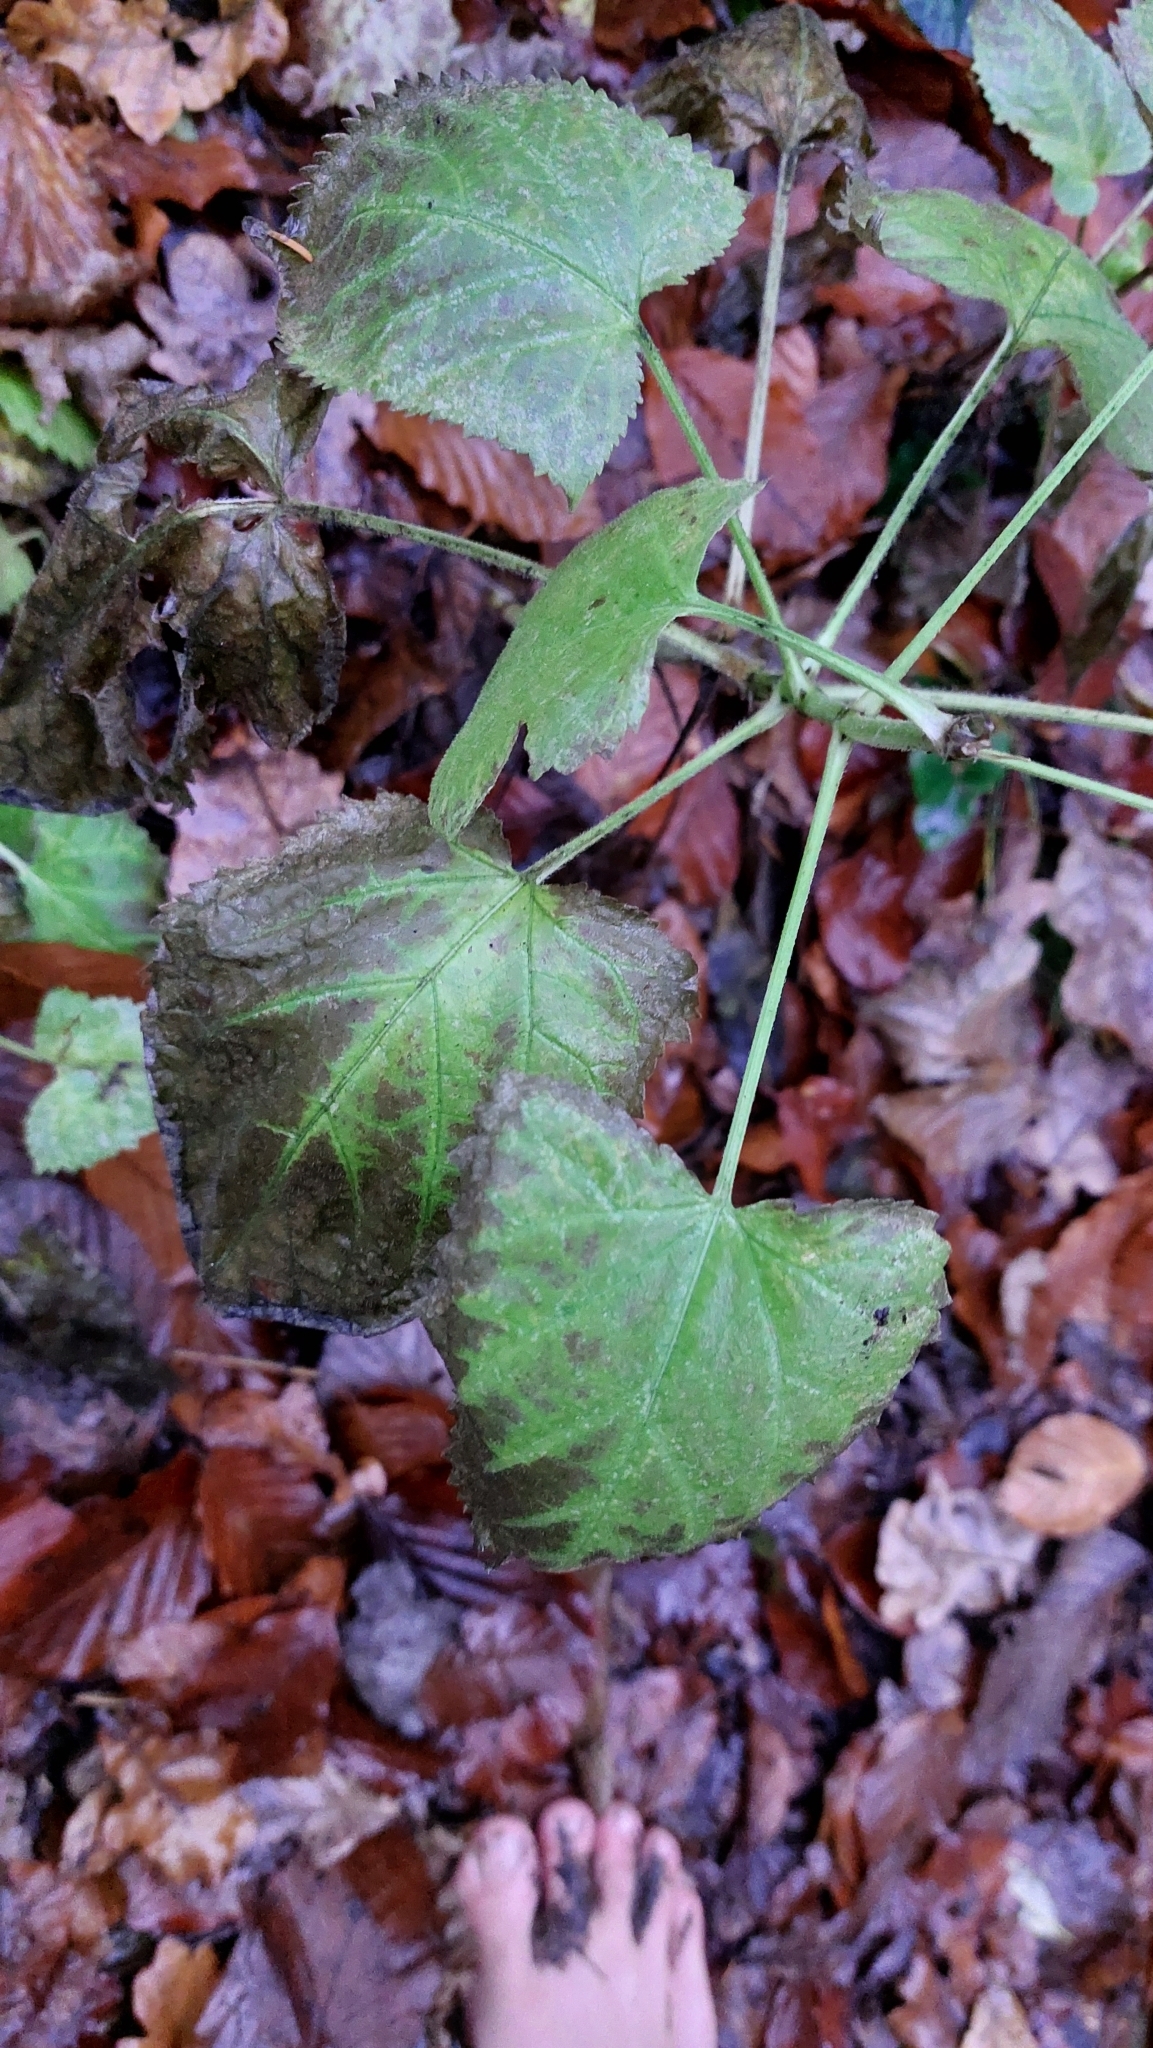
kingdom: Plantae
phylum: Tracheophyta
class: Magnoliopsida
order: Lamiales
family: Lamiaceae
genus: Salvia
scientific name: Salvia glutinosa
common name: Sticky clary
